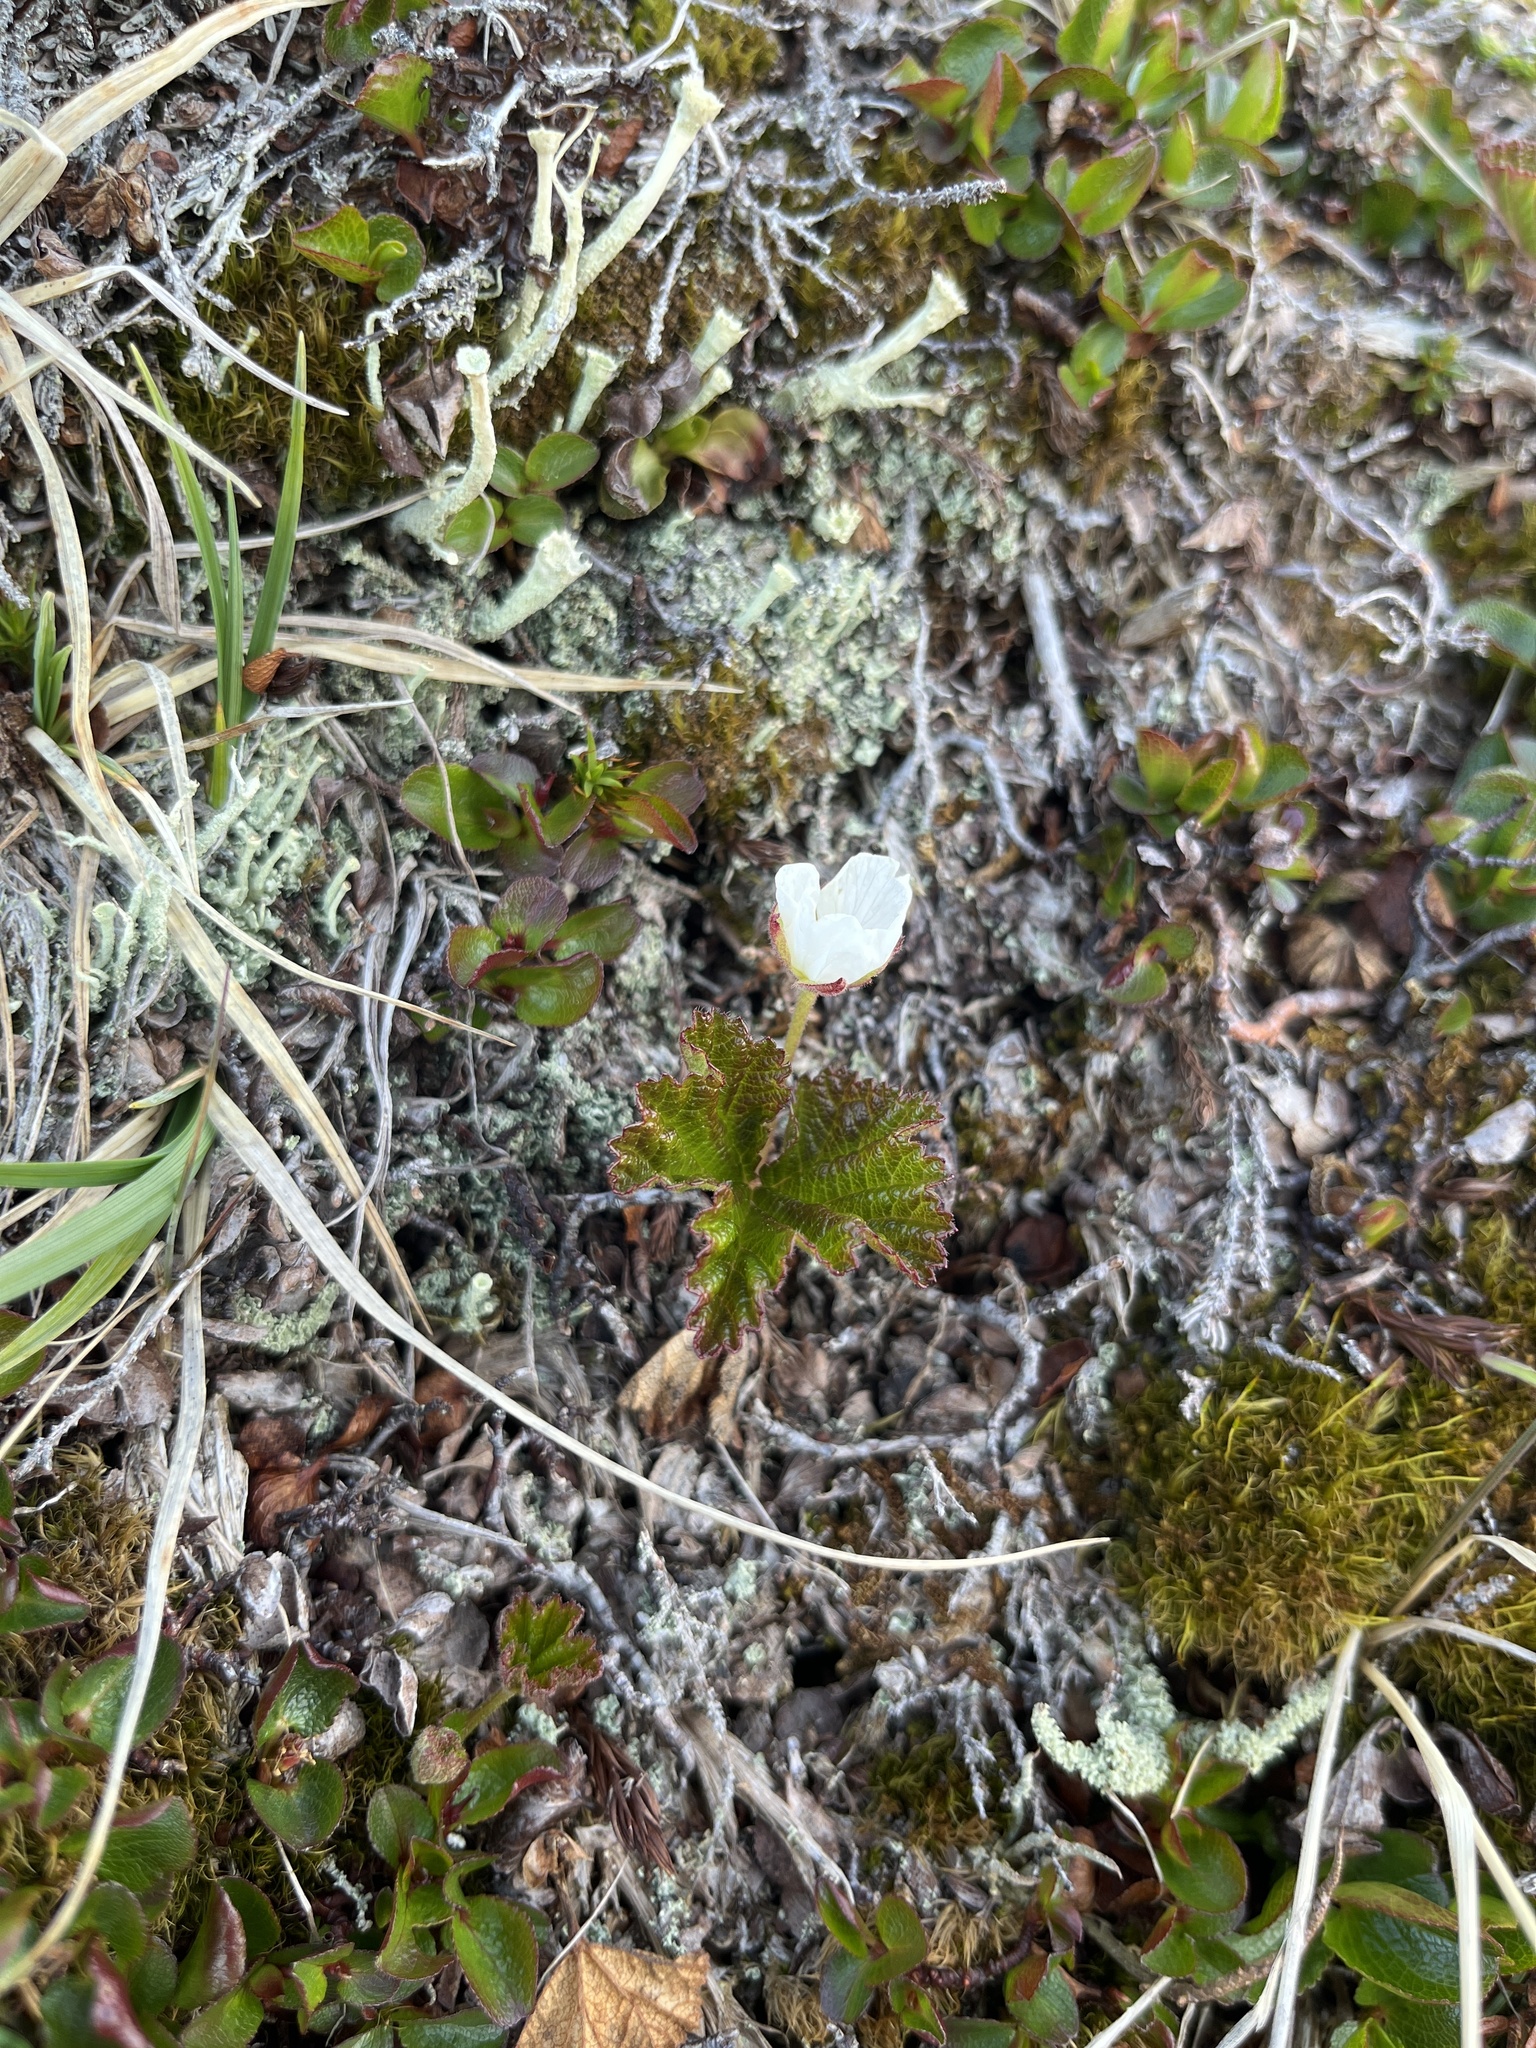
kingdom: Plantae
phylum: Tracheophyta
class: Magnoliopsida
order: Rosales
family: Rosaceae
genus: Rubus
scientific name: Rubus chamaemorus
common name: Cloudberry
